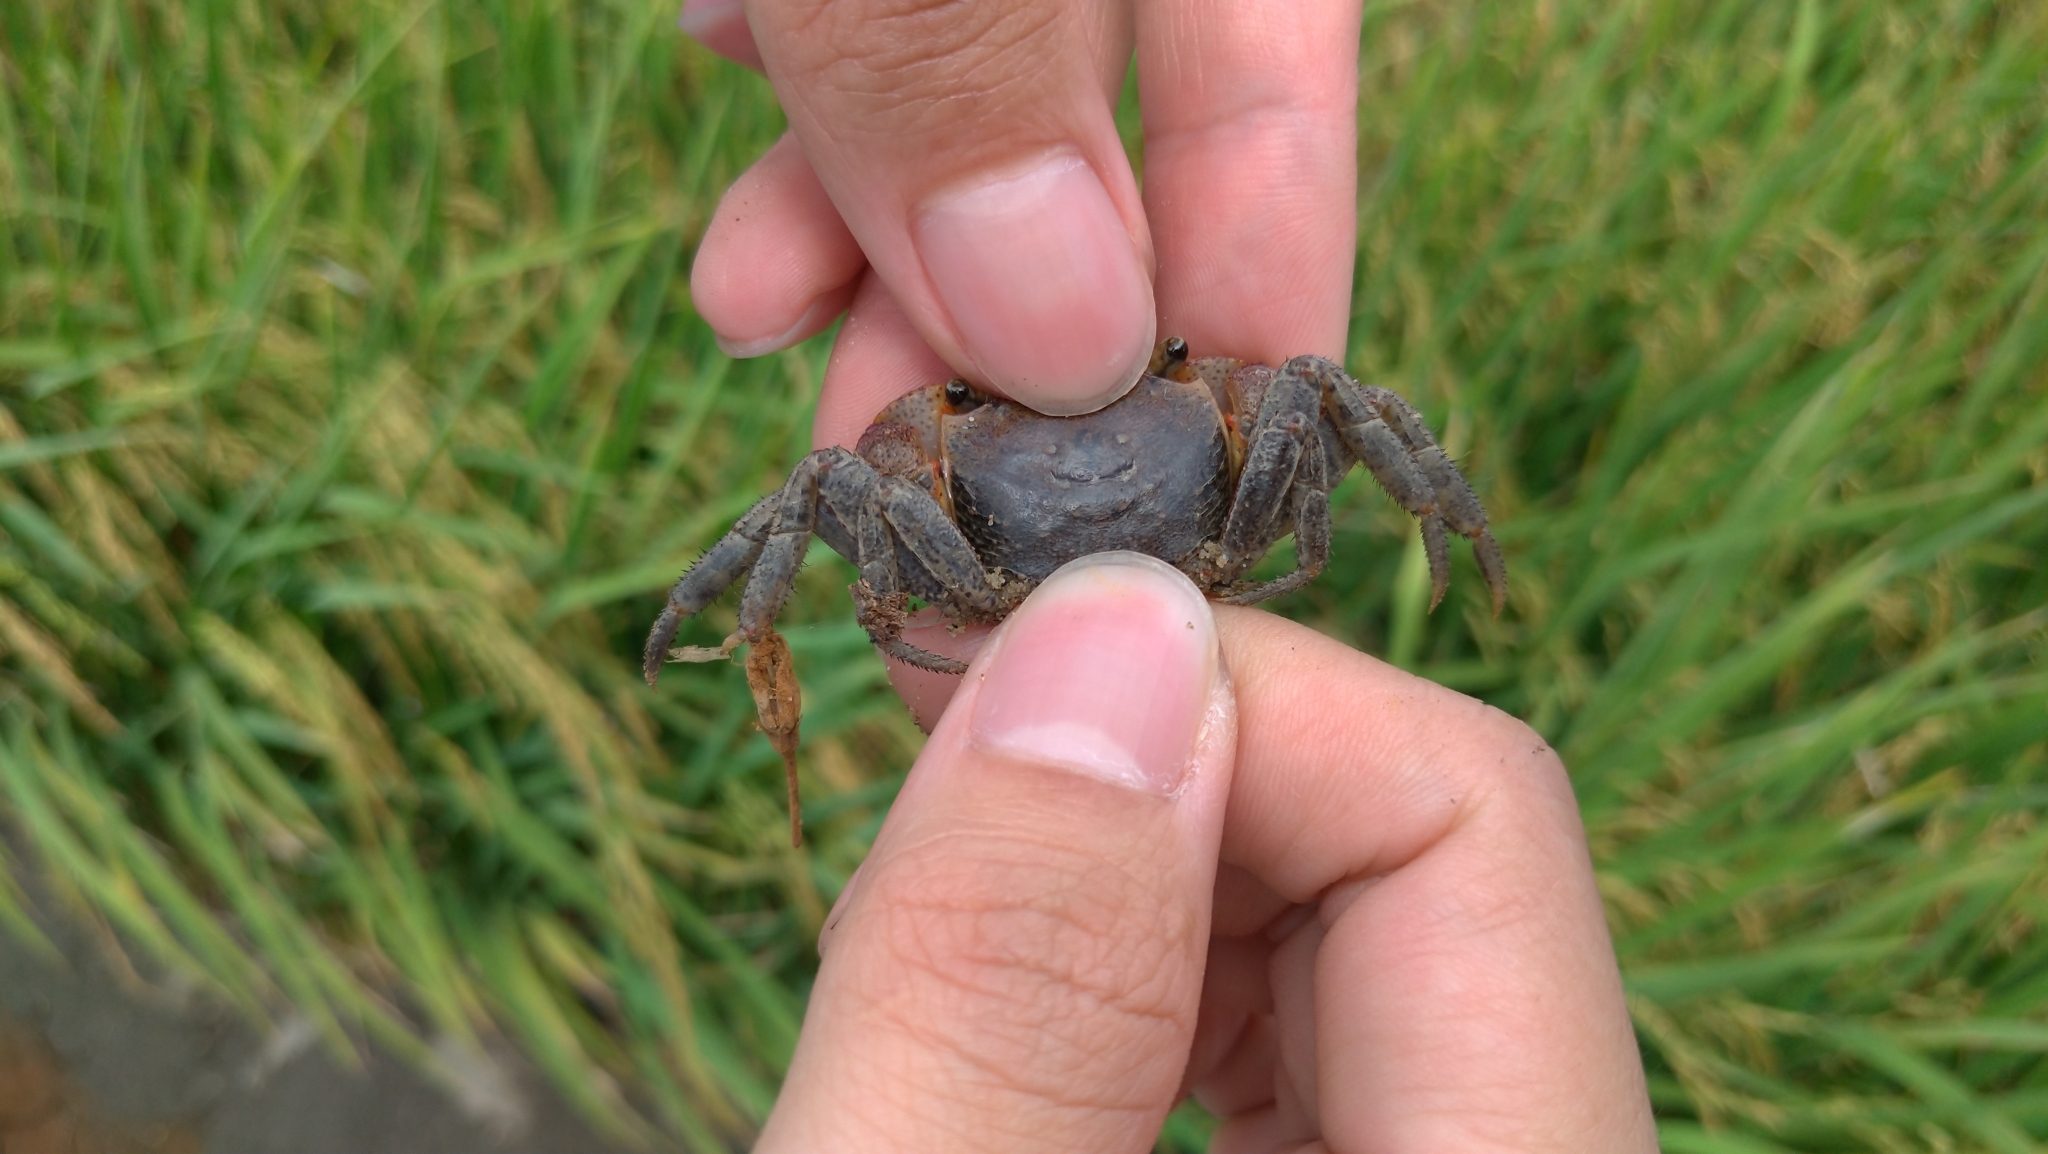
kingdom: Animalia
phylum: Arthropoda
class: Malacostraca
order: Decapoda
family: Sesarmidae
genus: Chiromantes
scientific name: Chiromantes haematocheir
